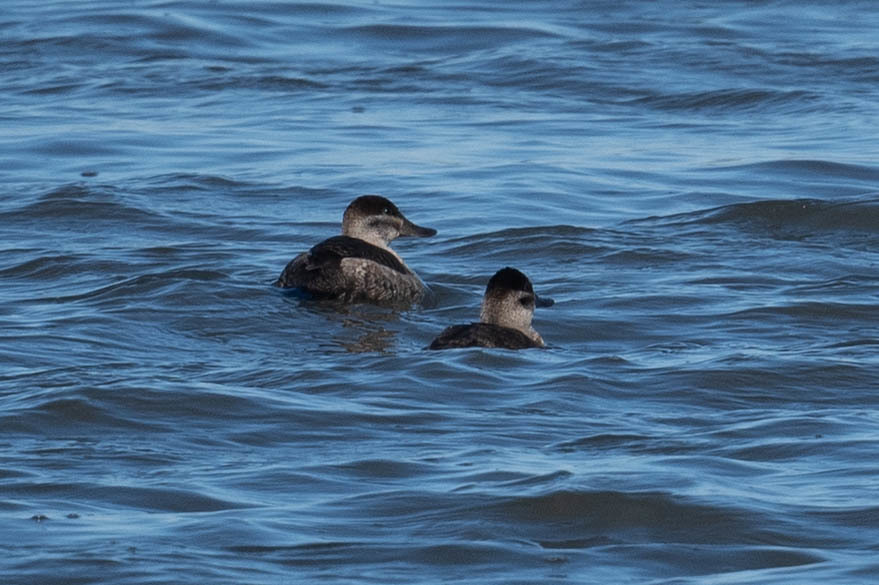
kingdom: Animalia
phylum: Chordata
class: Aves
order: Anseriformes
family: Anatidae
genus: Oxyura
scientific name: Oxyura jamaicensis
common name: Ruddy duck
